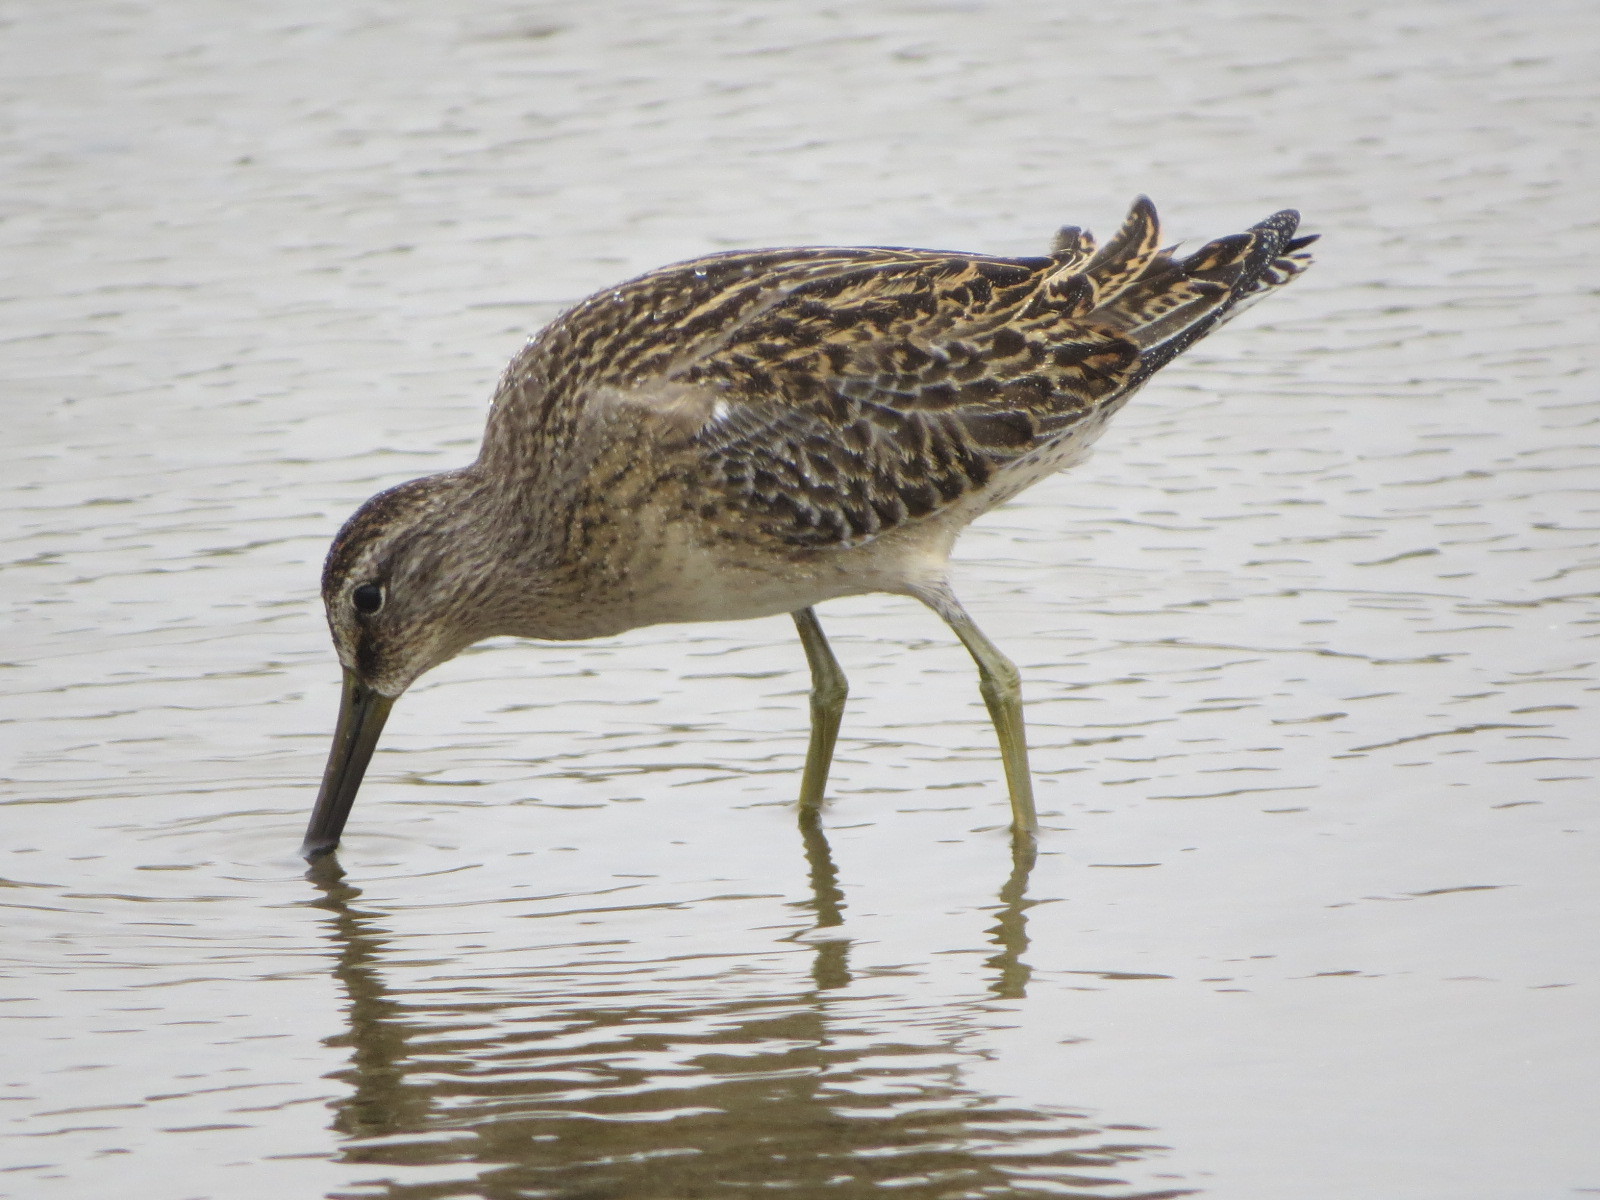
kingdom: Animalia
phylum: Chordata
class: Aves
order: Charadriiformes
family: Scolopacidae
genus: Limnodromus
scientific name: Limnodromus griseus
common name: Short-billed dowitcher
